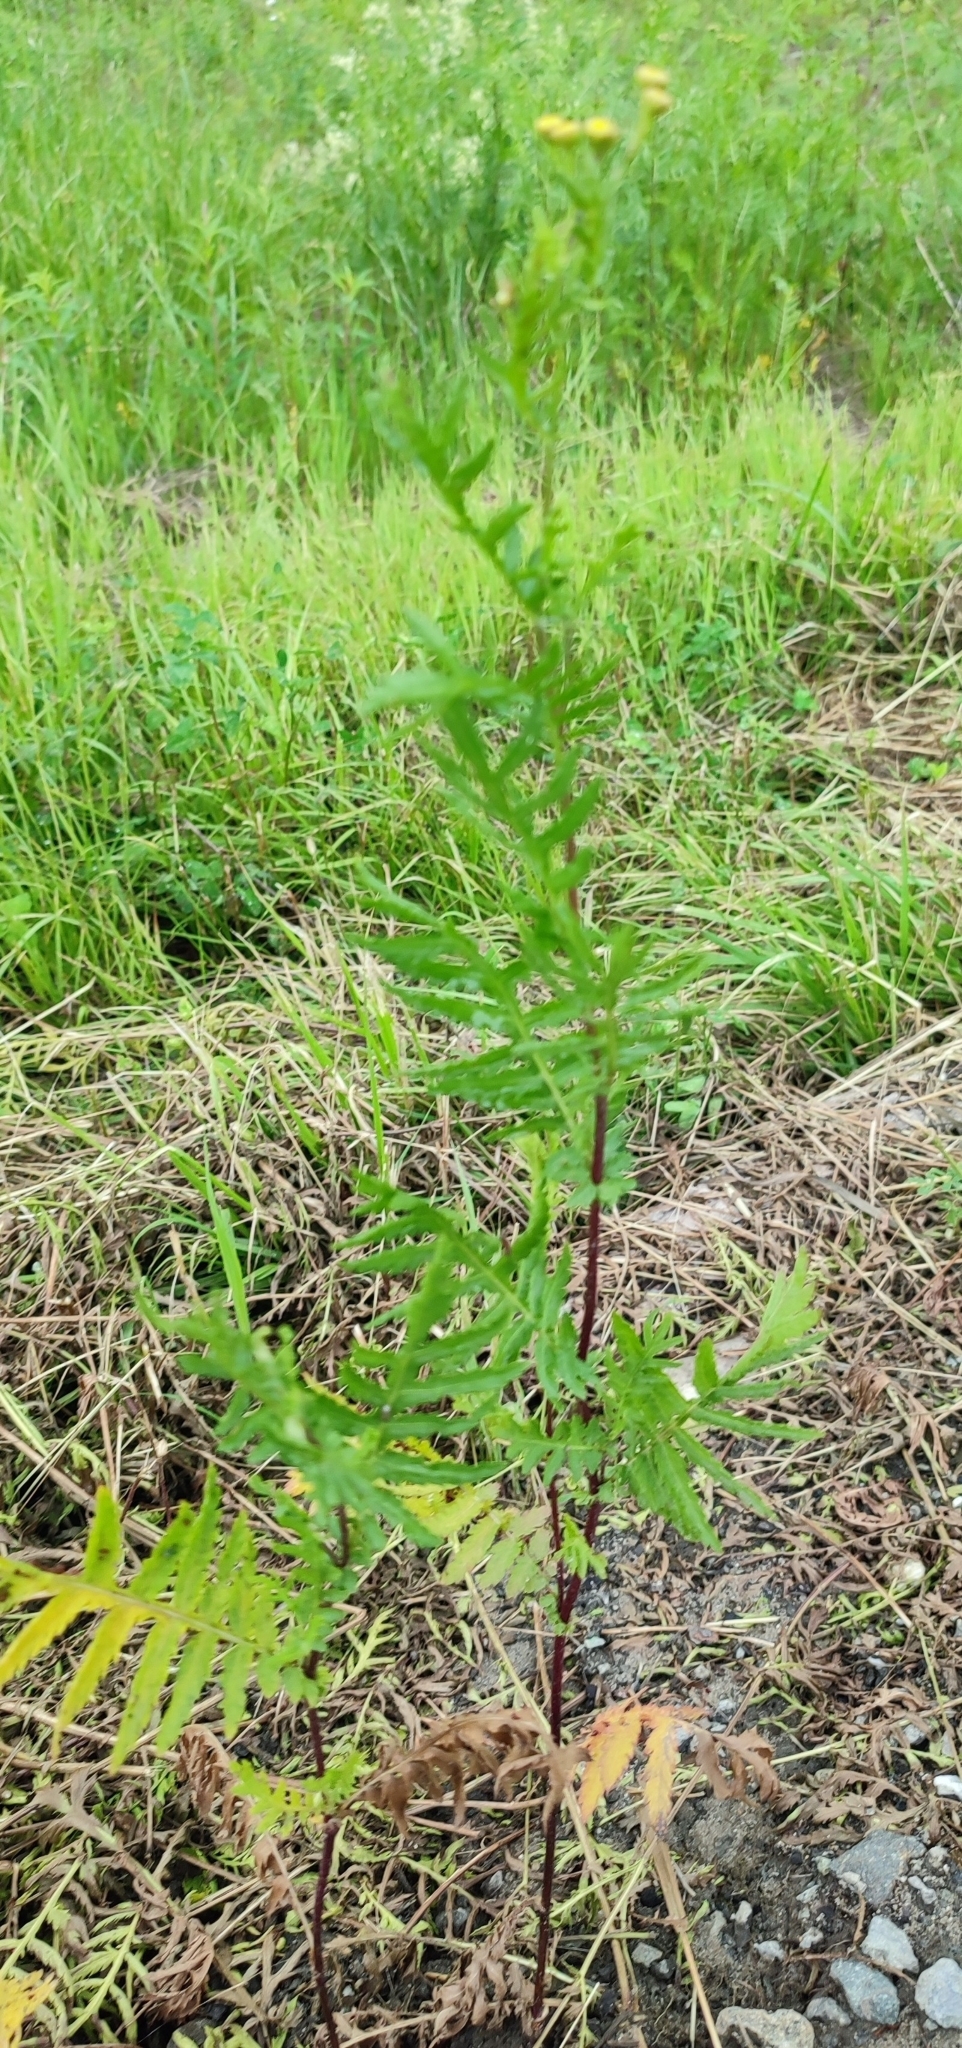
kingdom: Plantae
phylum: Tracheophyta
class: Magnoliopsida
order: Asterales
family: Asteraceae
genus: Tanacetum
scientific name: Tanacetum vulgare
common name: Common tansy
